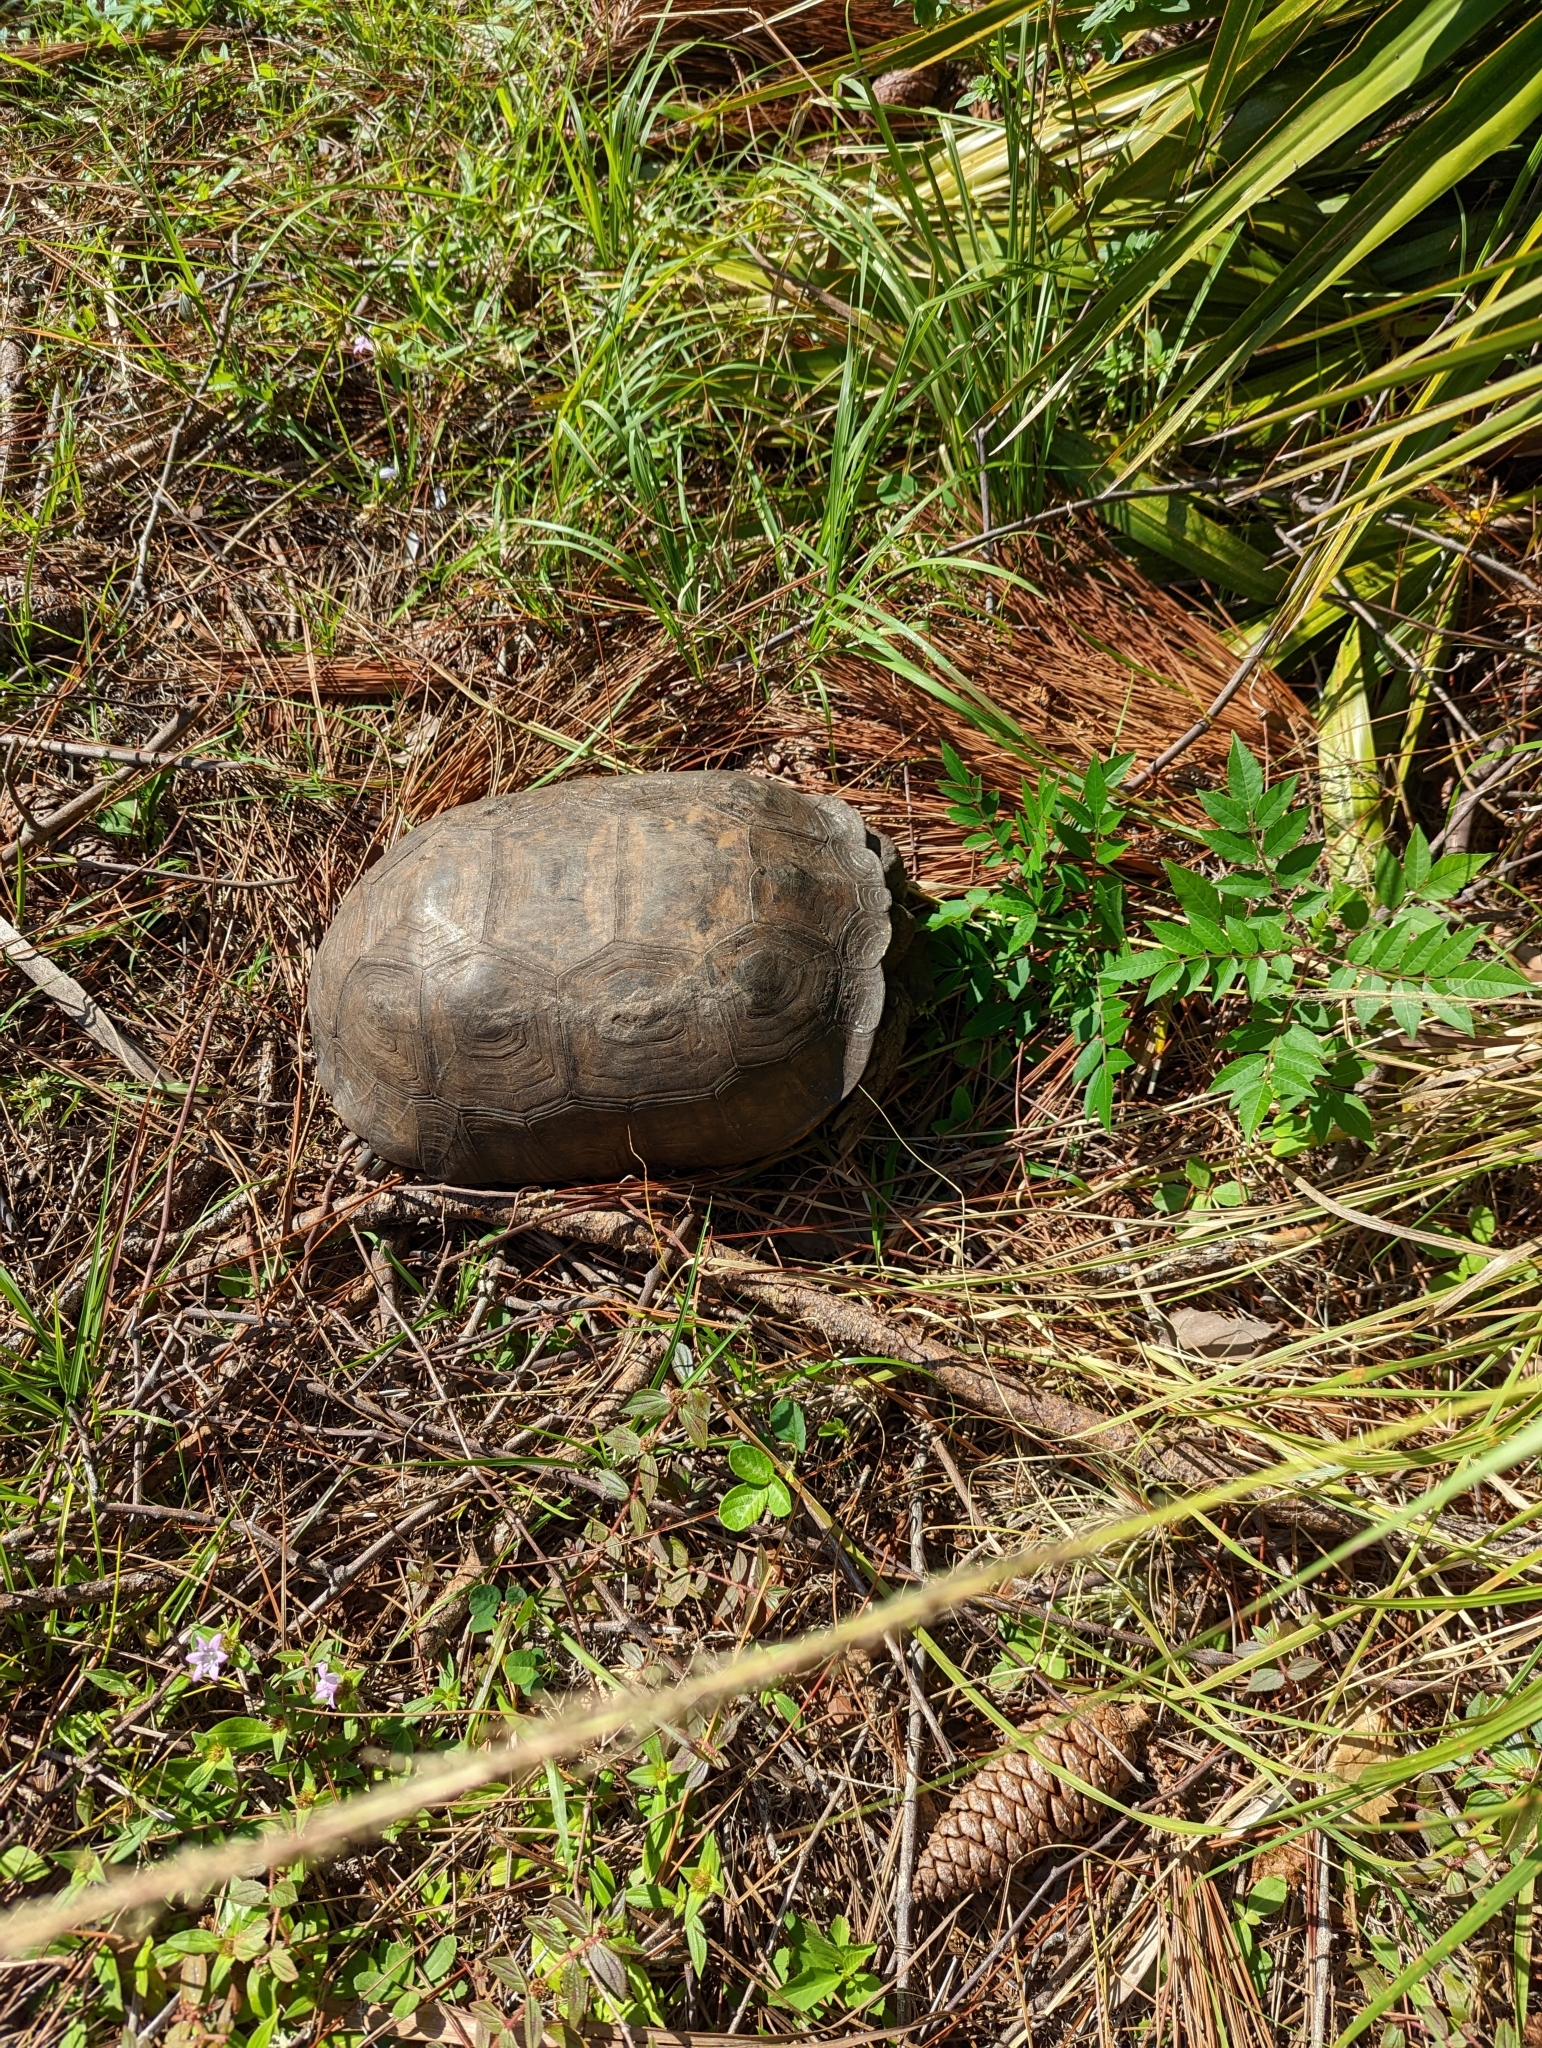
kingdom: Animalia
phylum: Chordata
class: Testudines
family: Testudinidae
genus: Gopherus
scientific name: Gopherus polyphemus
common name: Florida gopher tortoise
